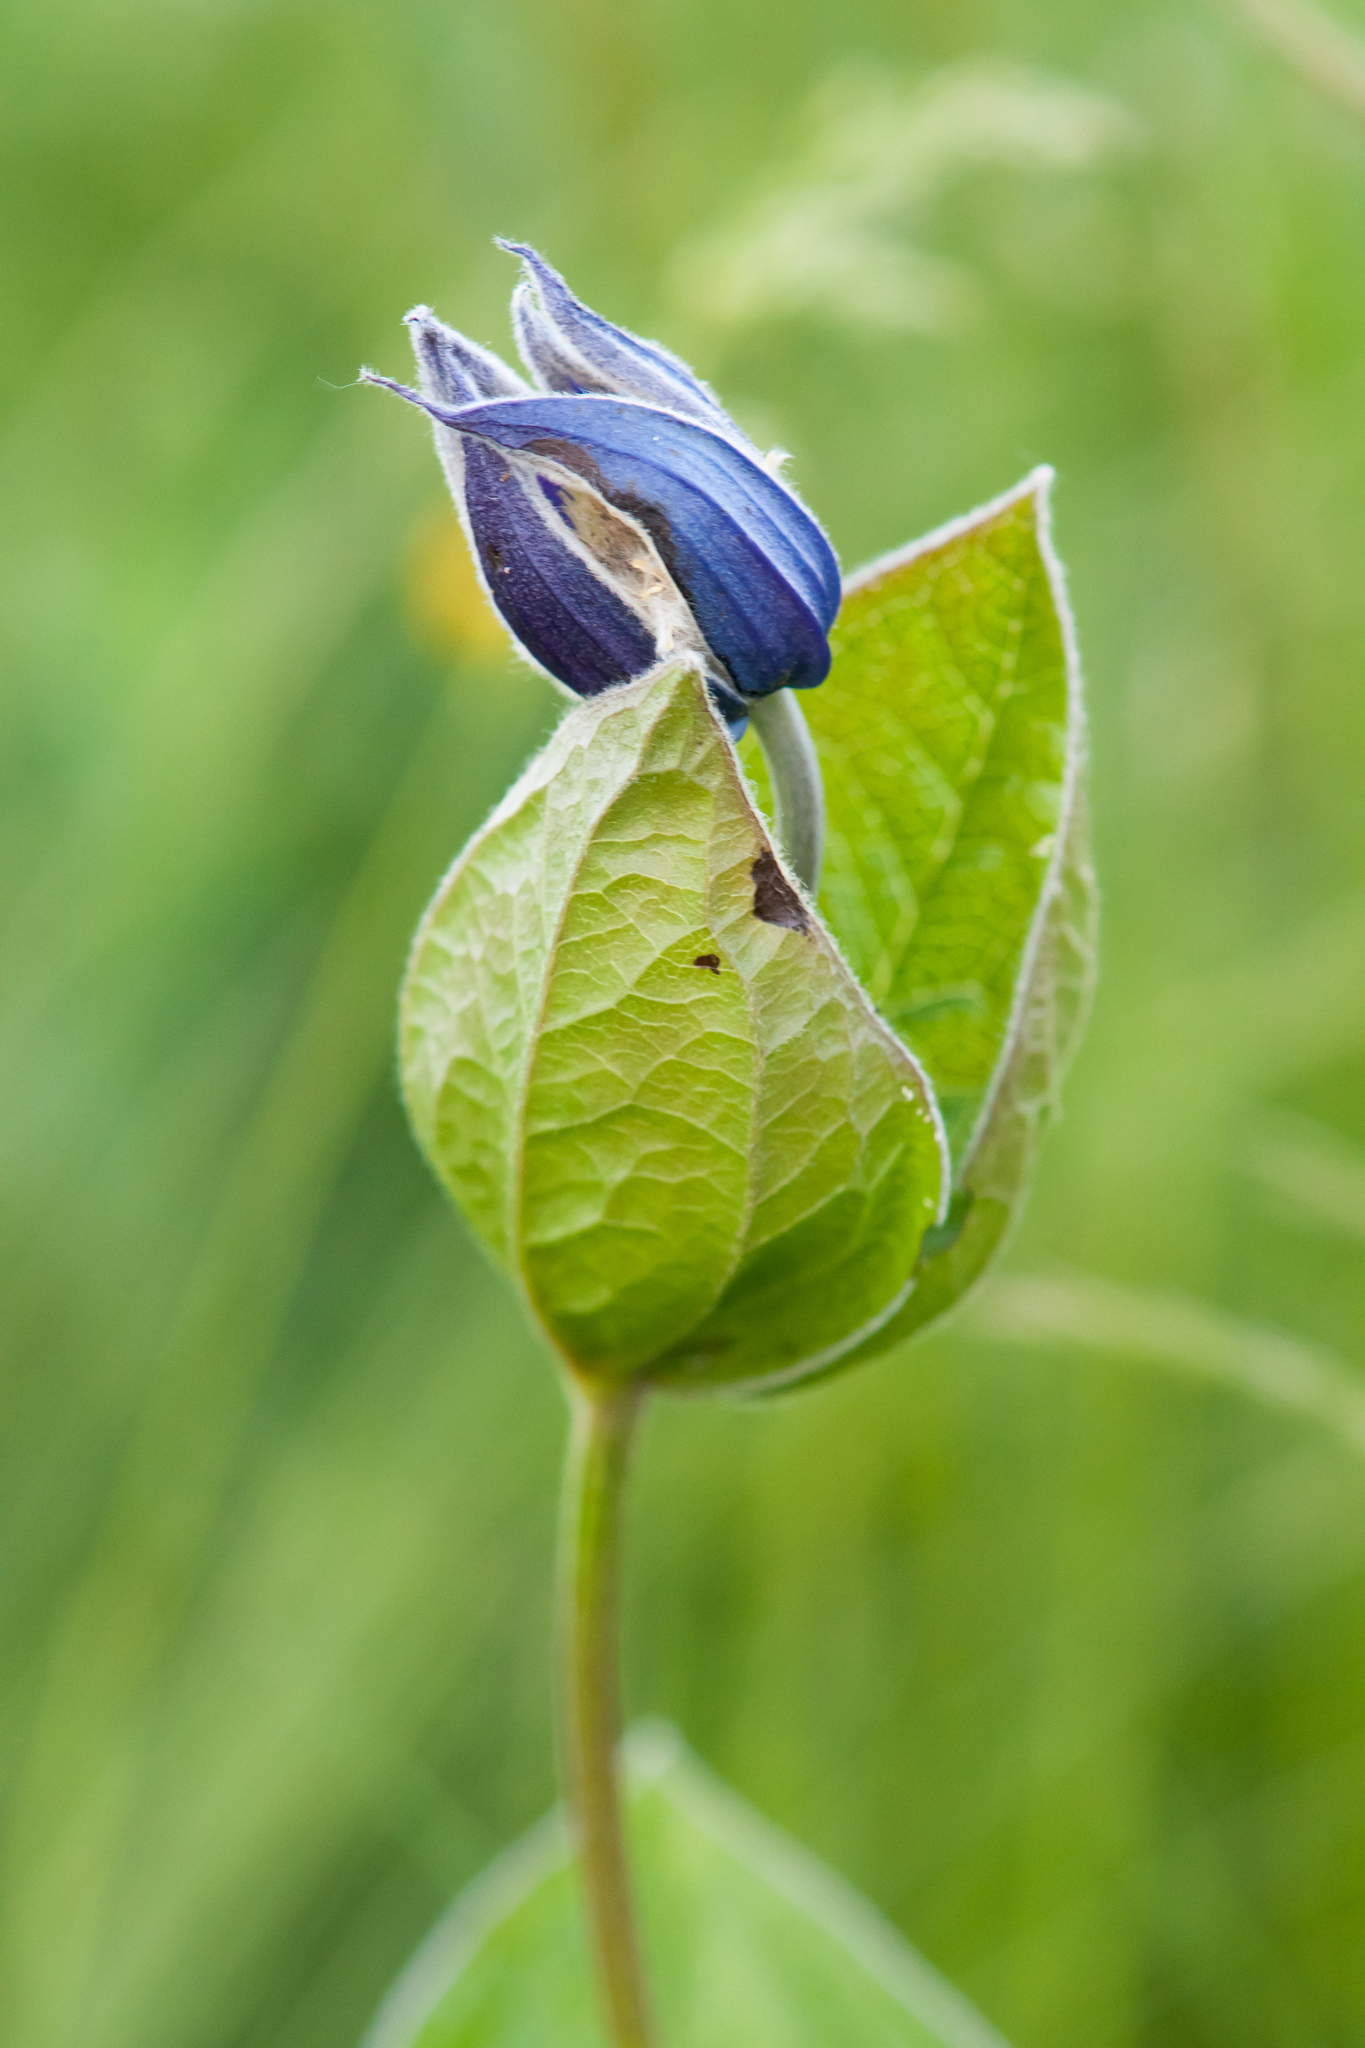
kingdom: Plantae
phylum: Tracheophyta
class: Magnoliopsida
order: Ranunculales
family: Ranunculaceae
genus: Clematis
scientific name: Clematis integrifolia
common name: Solitary clematis
